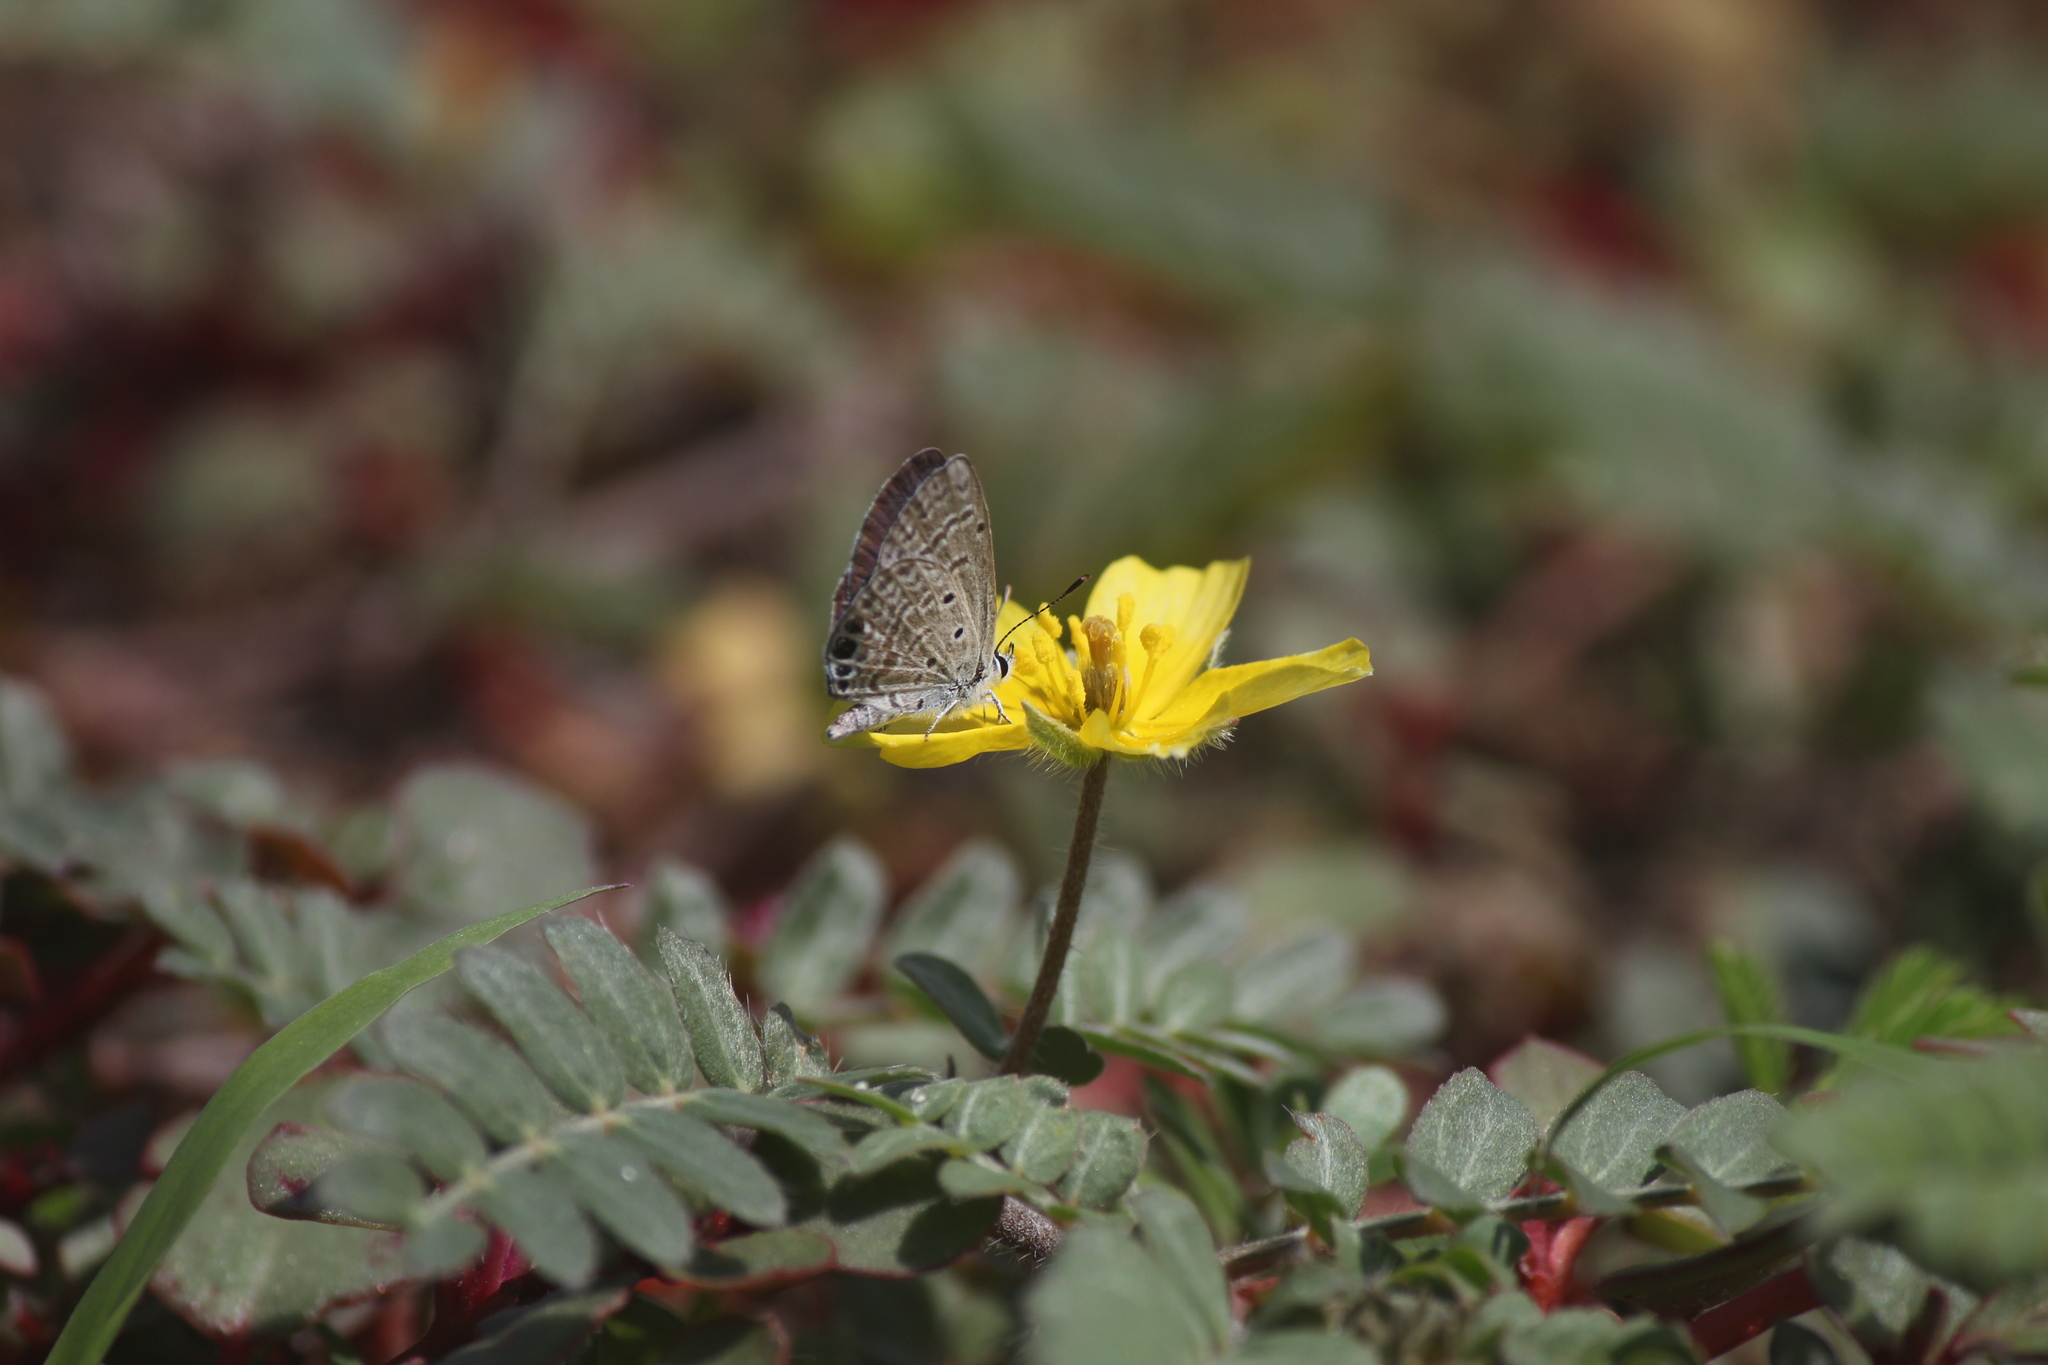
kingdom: Animalia
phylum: Arthropoda
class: Insecta
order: Lepidoptera
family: Lycaenidae
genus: Hemiargus
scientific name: Hemiargus ramon
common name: Ramon blue
